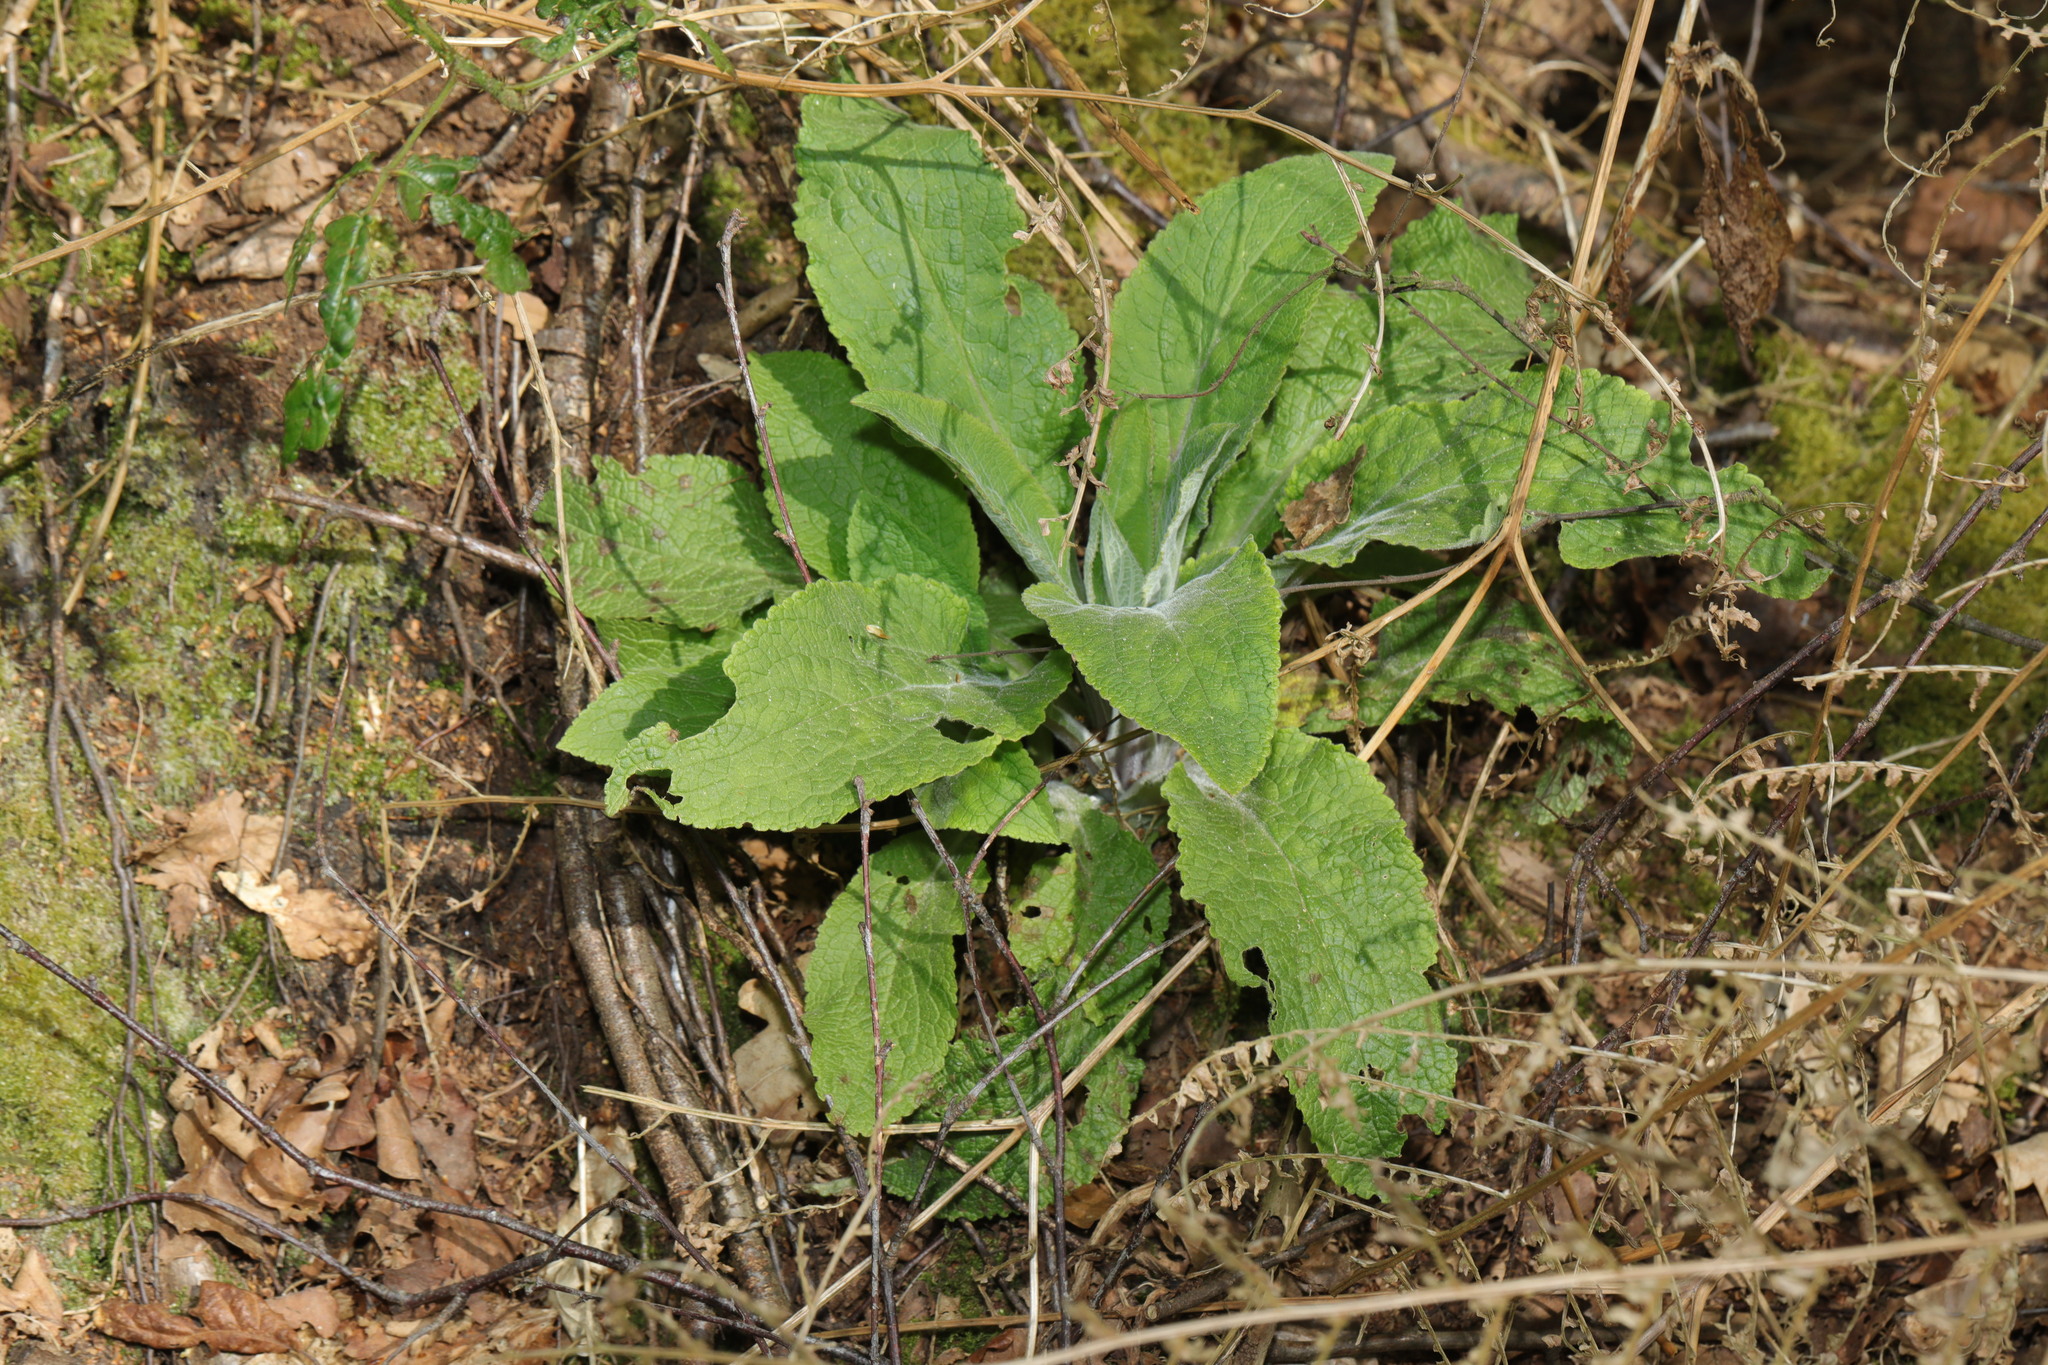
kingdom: Plantae
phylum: Tracheophyta
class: Magnoliopsida
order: Lamiales
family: Plantaginaceae
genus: Digitalis
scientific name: Digitalis purpurea
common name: Foxglove
